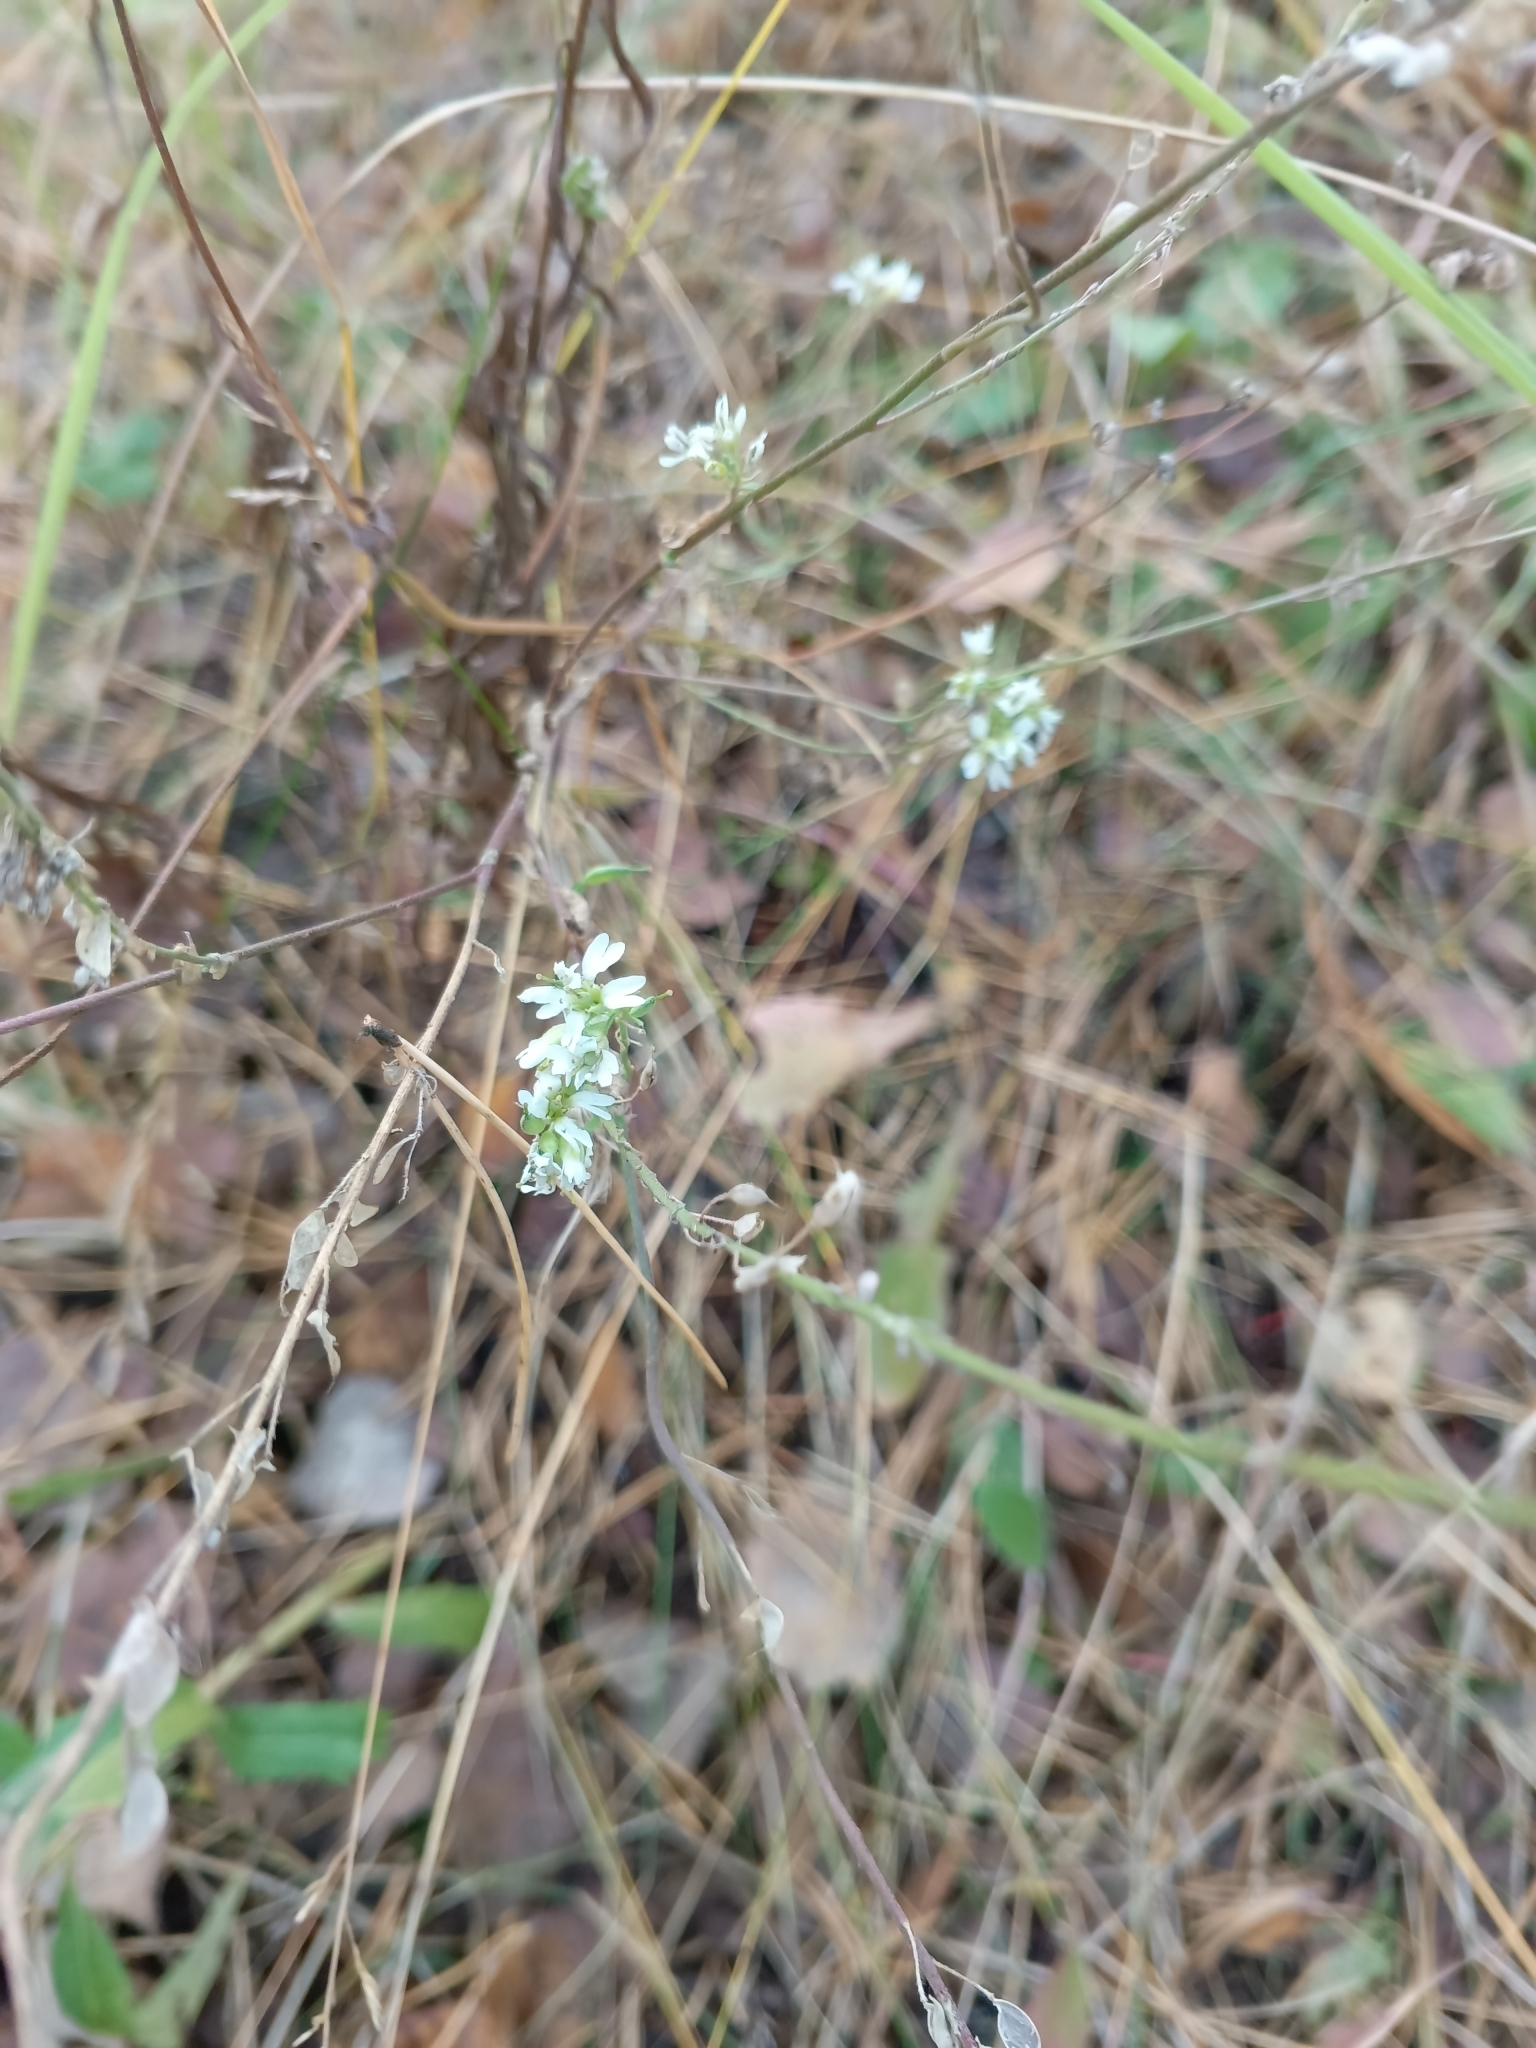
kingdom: Plantae
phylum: Tracheophyta
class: Magnoliopsida
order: Brassicales
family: Brassicaceae
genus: Berteroa
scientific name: Berteroa incana
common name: Hoary alison
